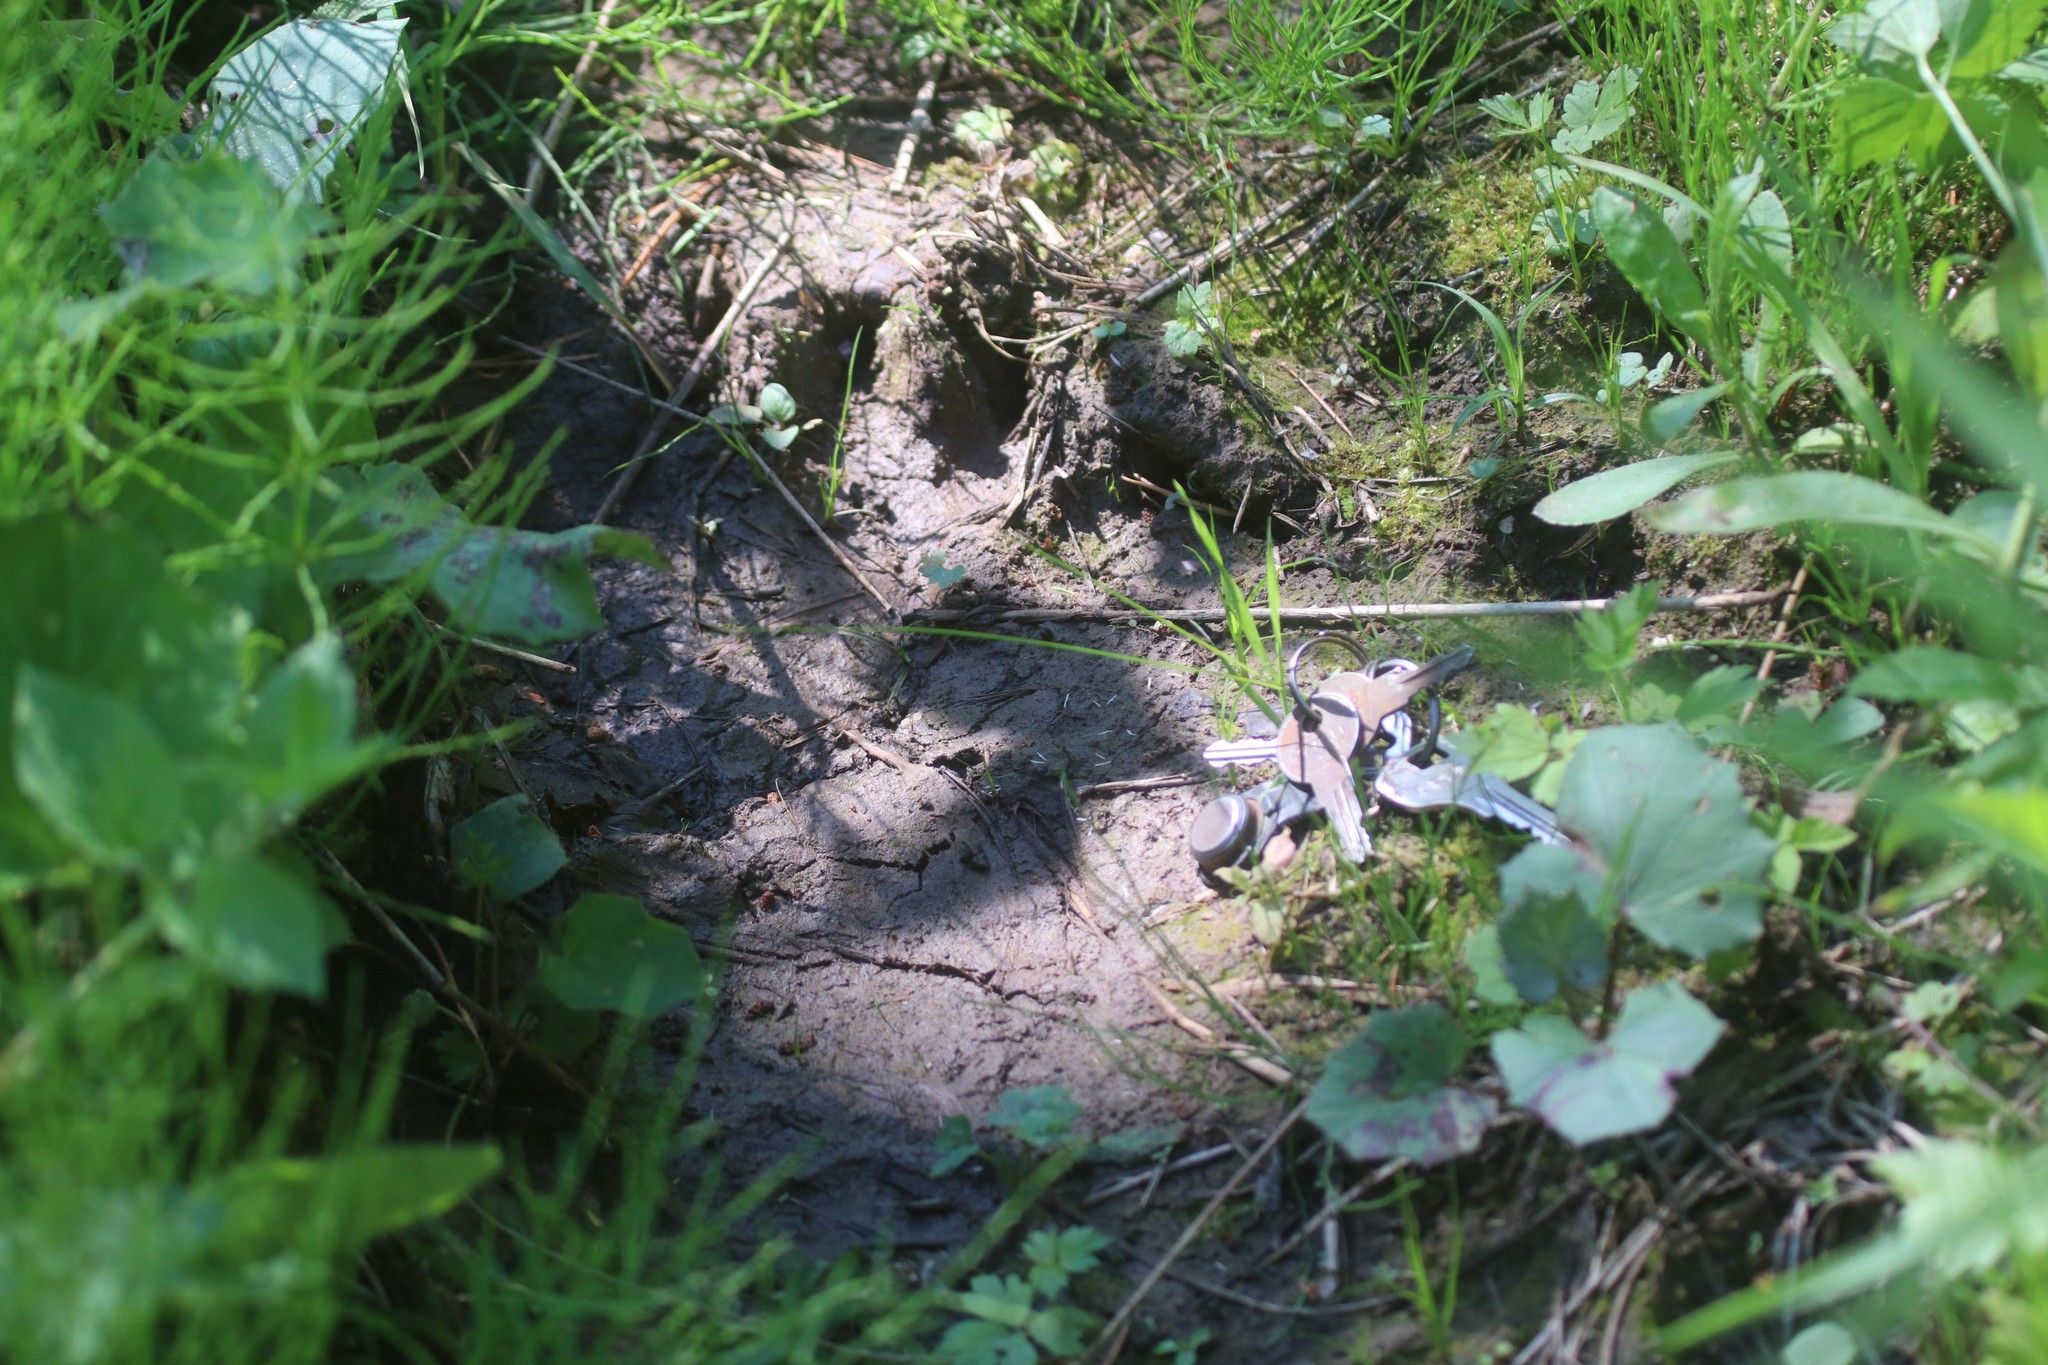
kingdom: Animalia
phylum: Chordata
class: Mammalia
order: Carnivora
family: Ursidae
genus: Ursus
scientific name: Ursus arctos
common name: Brown bear
